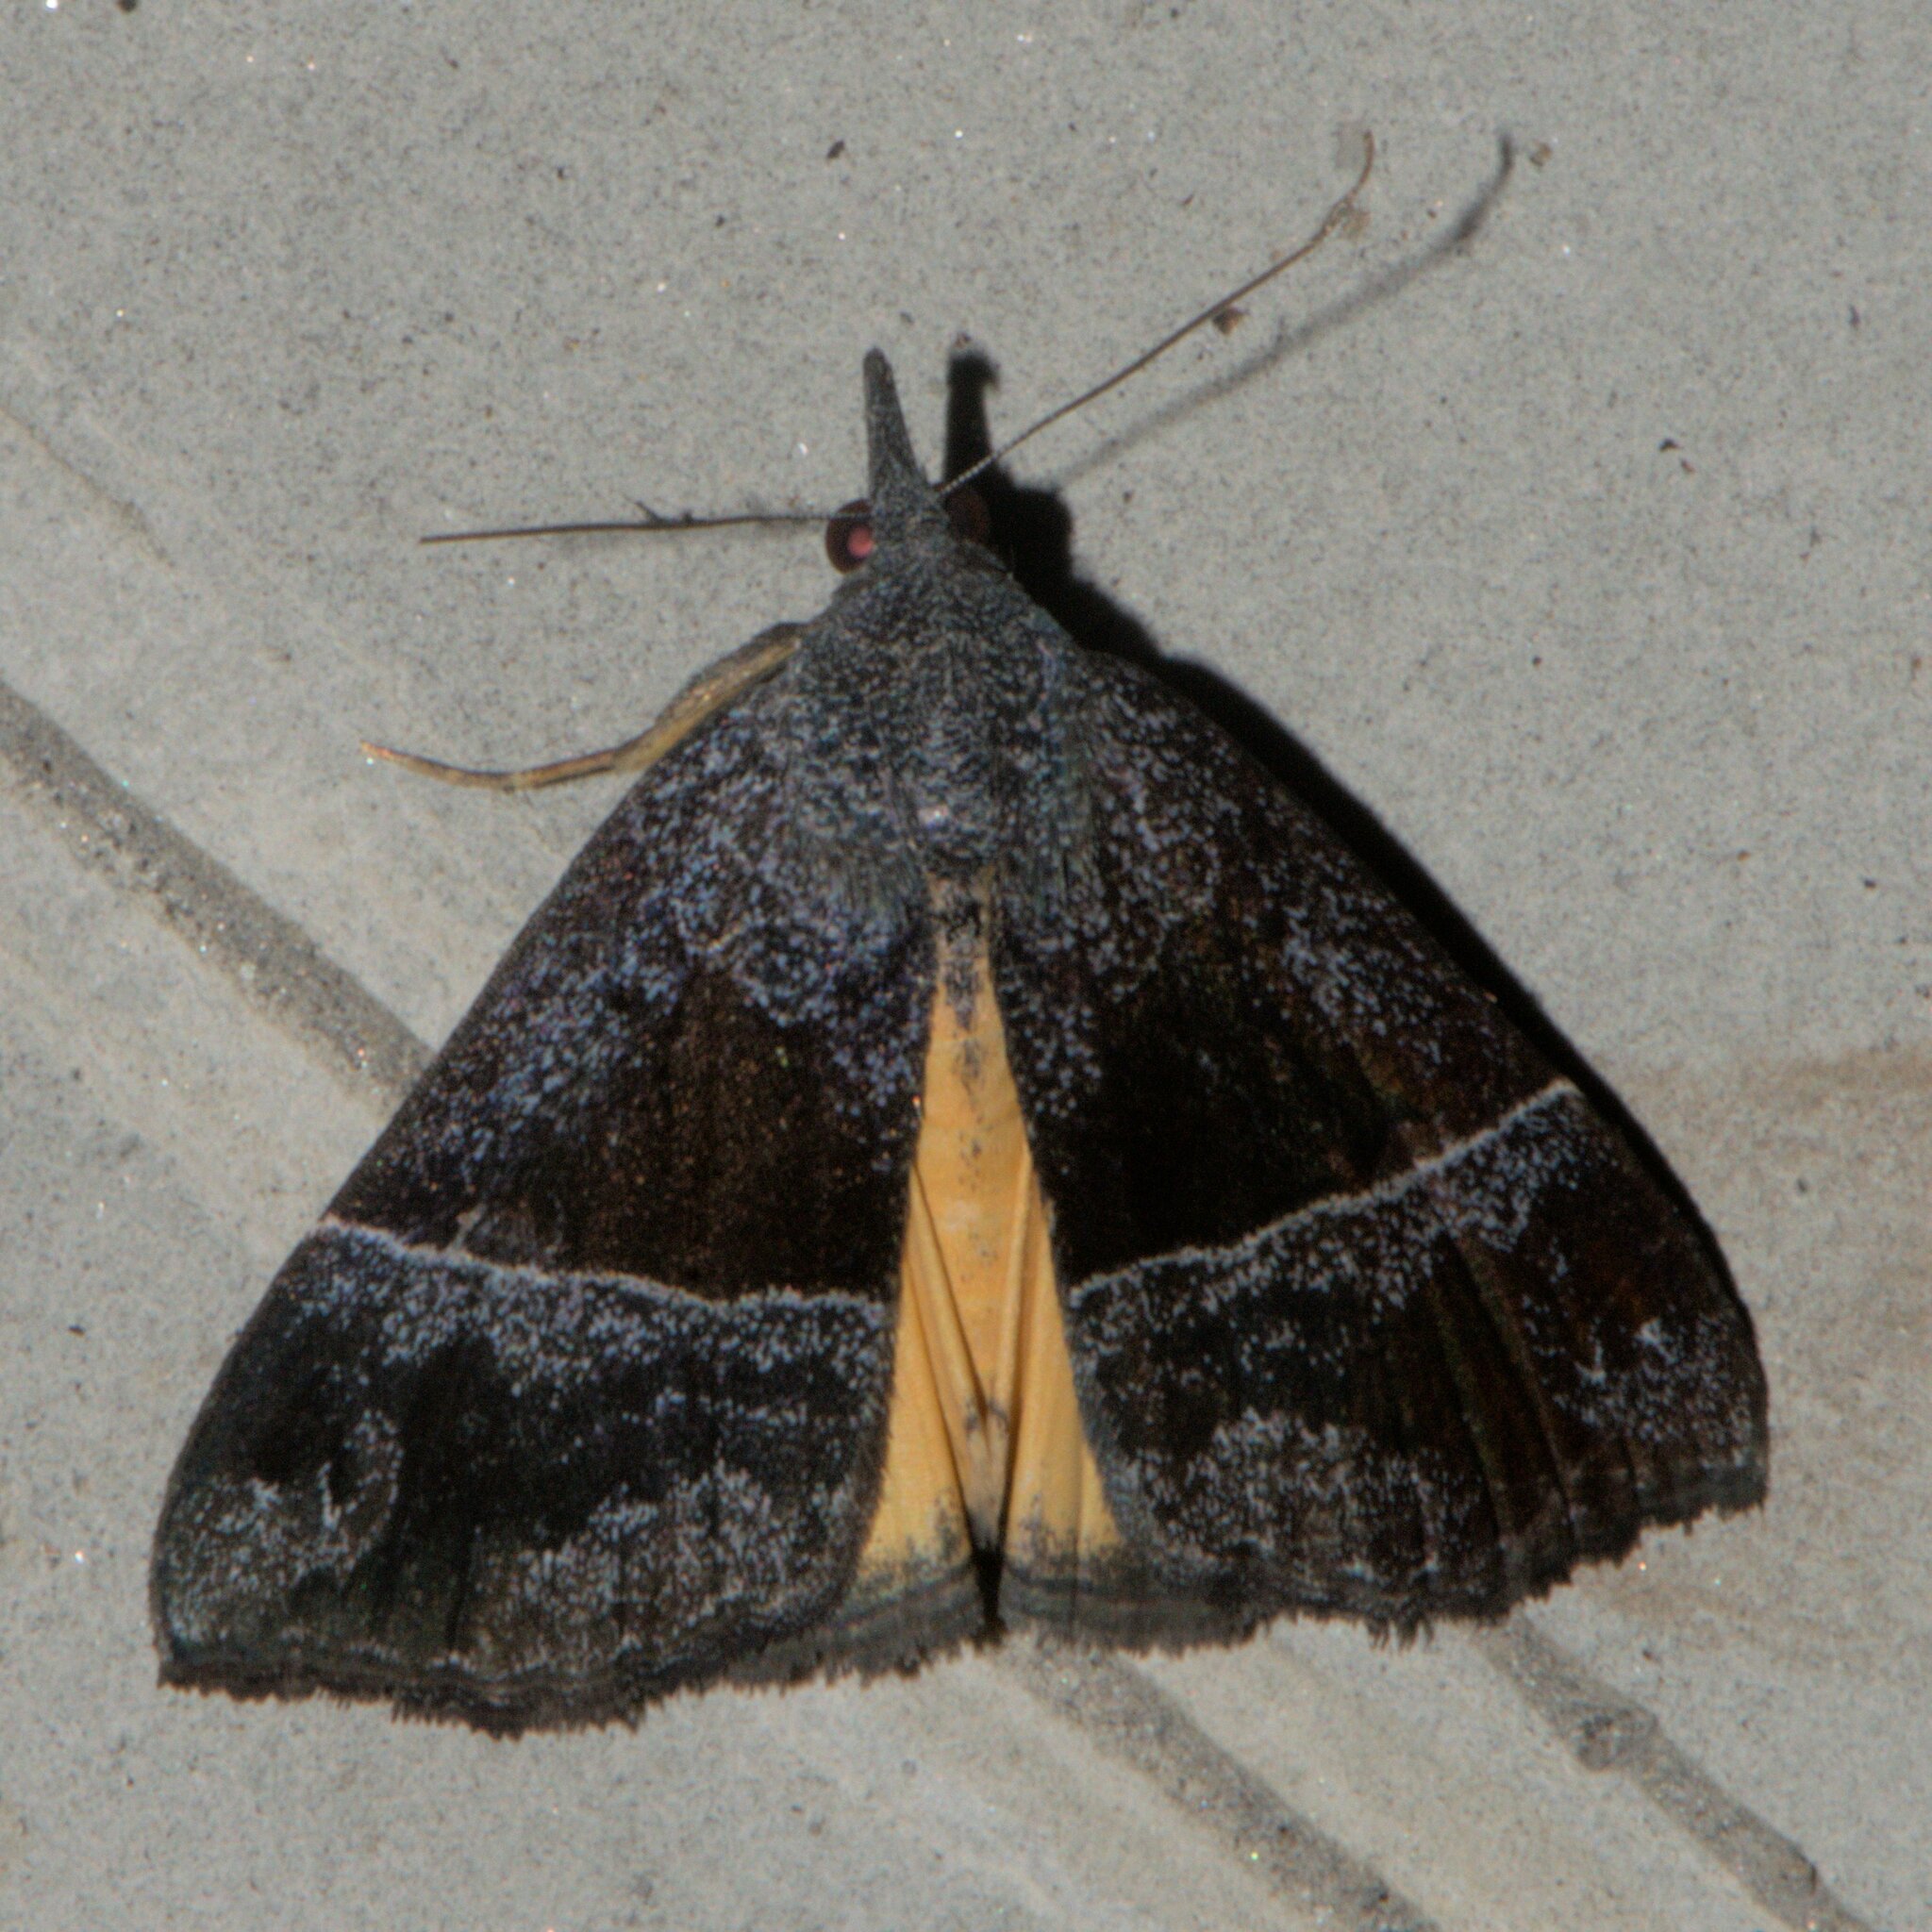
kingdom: Animalia
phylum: Arthropoda
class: Insecta
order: Lepidoptera
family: Erebidae
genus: Hypena
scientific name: Hypena amica
